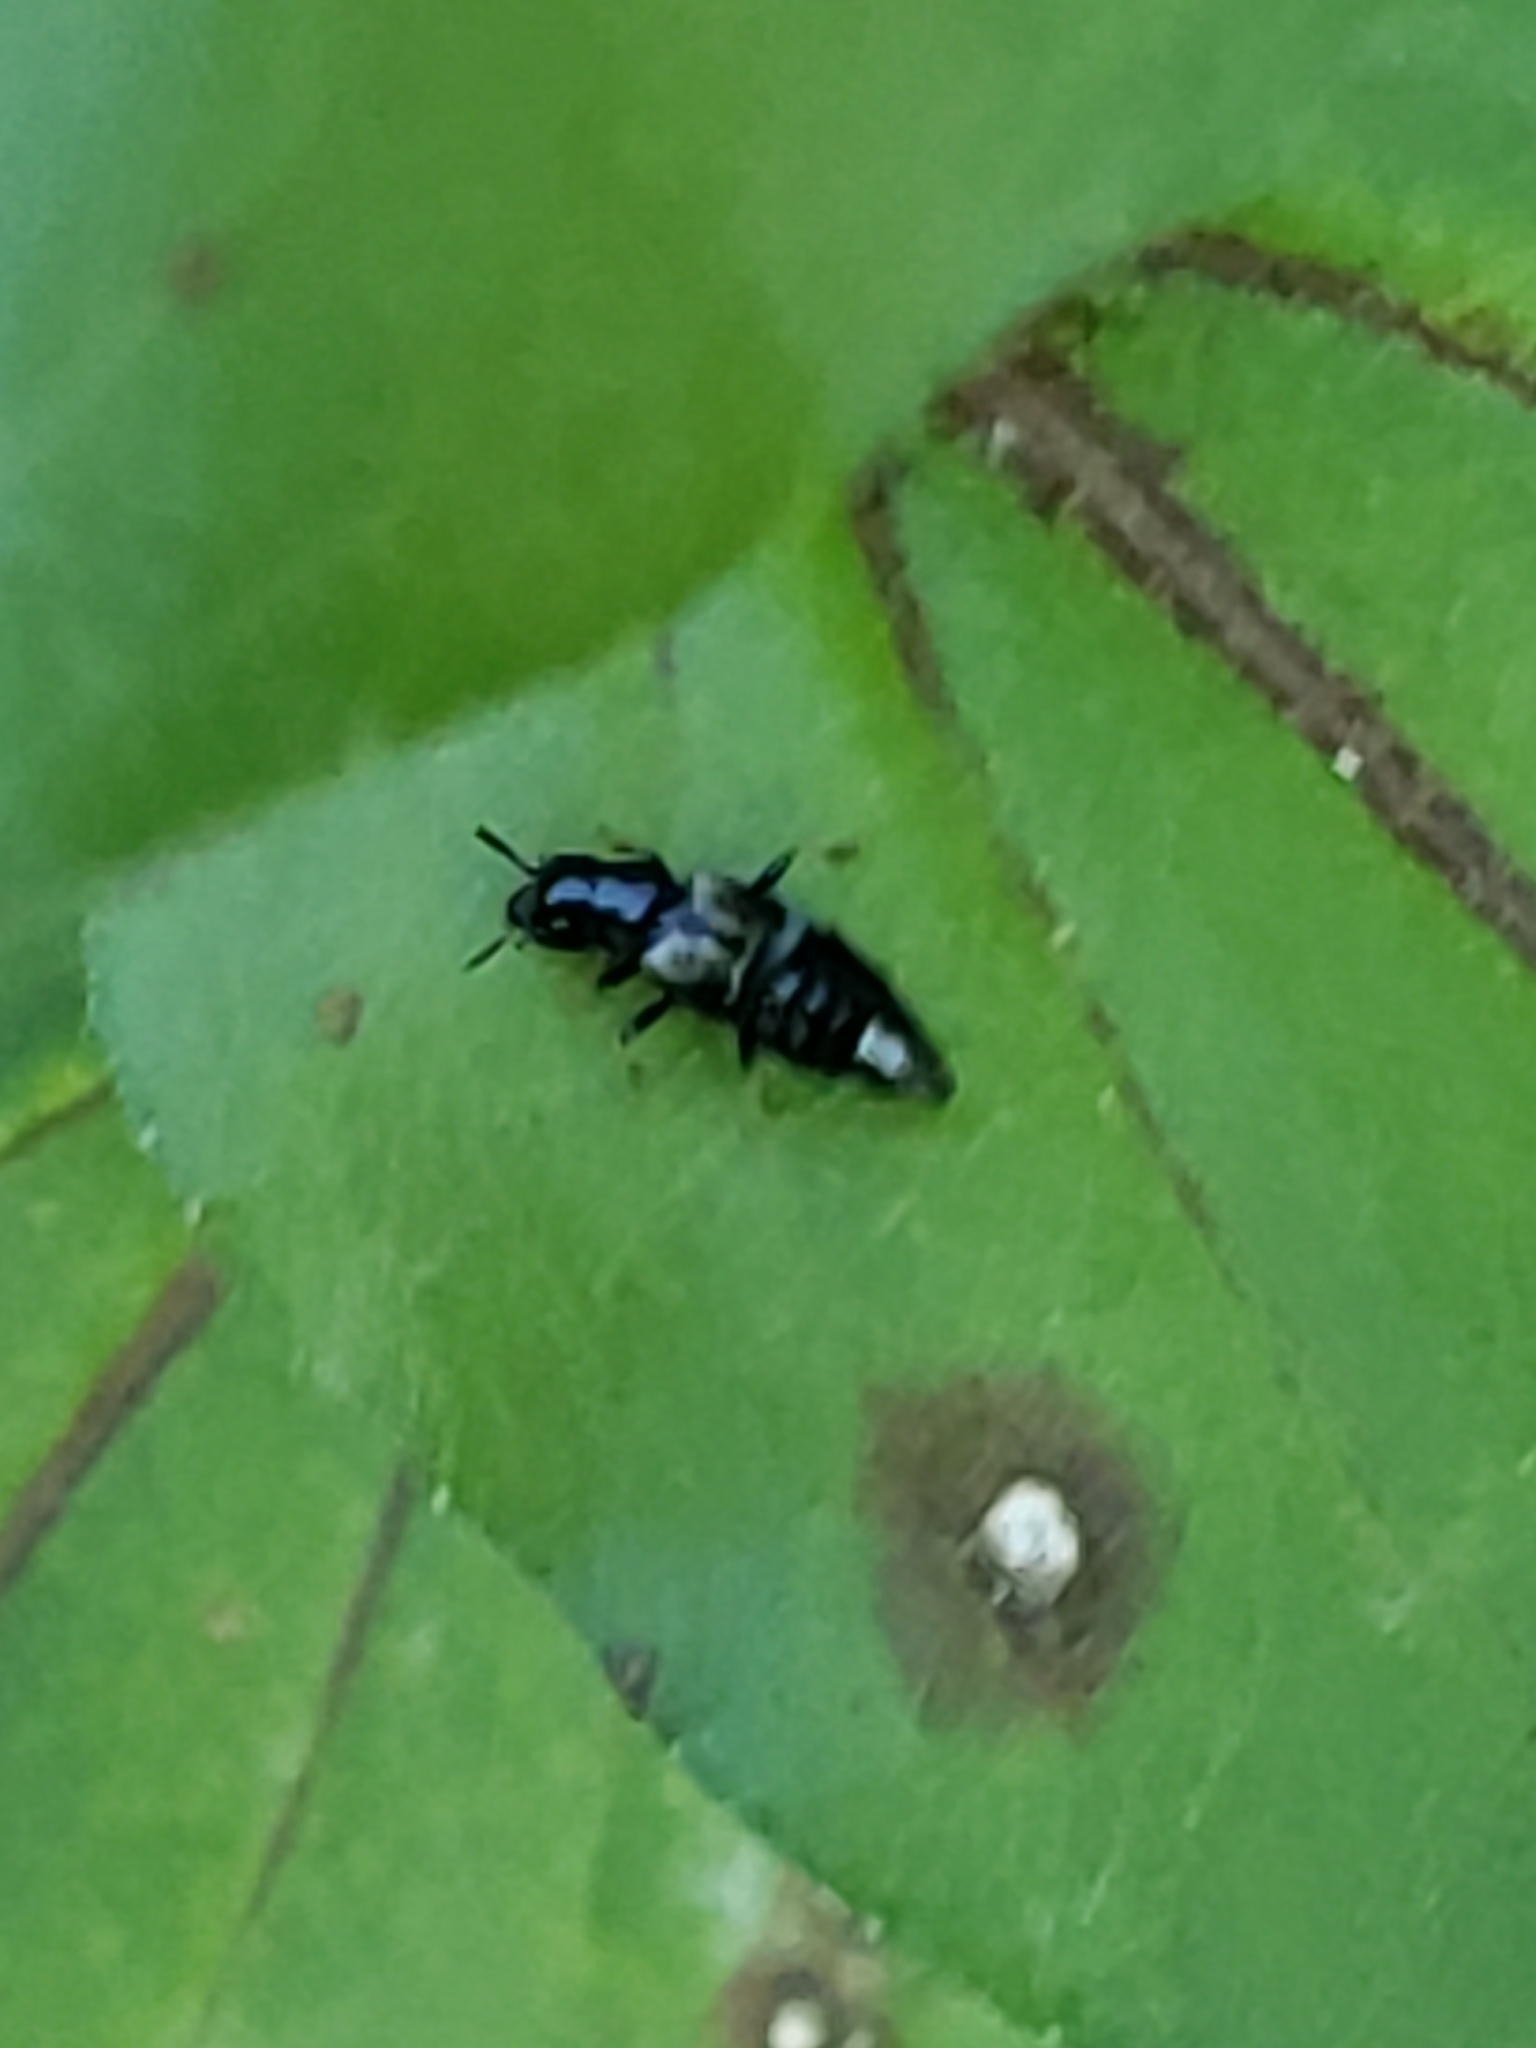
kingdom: Animalia
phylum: Arthropoda
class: Insecta
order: Coleoptera
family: Staphylinidae
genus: Oxyporus
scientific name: Oxyporus femoralis
